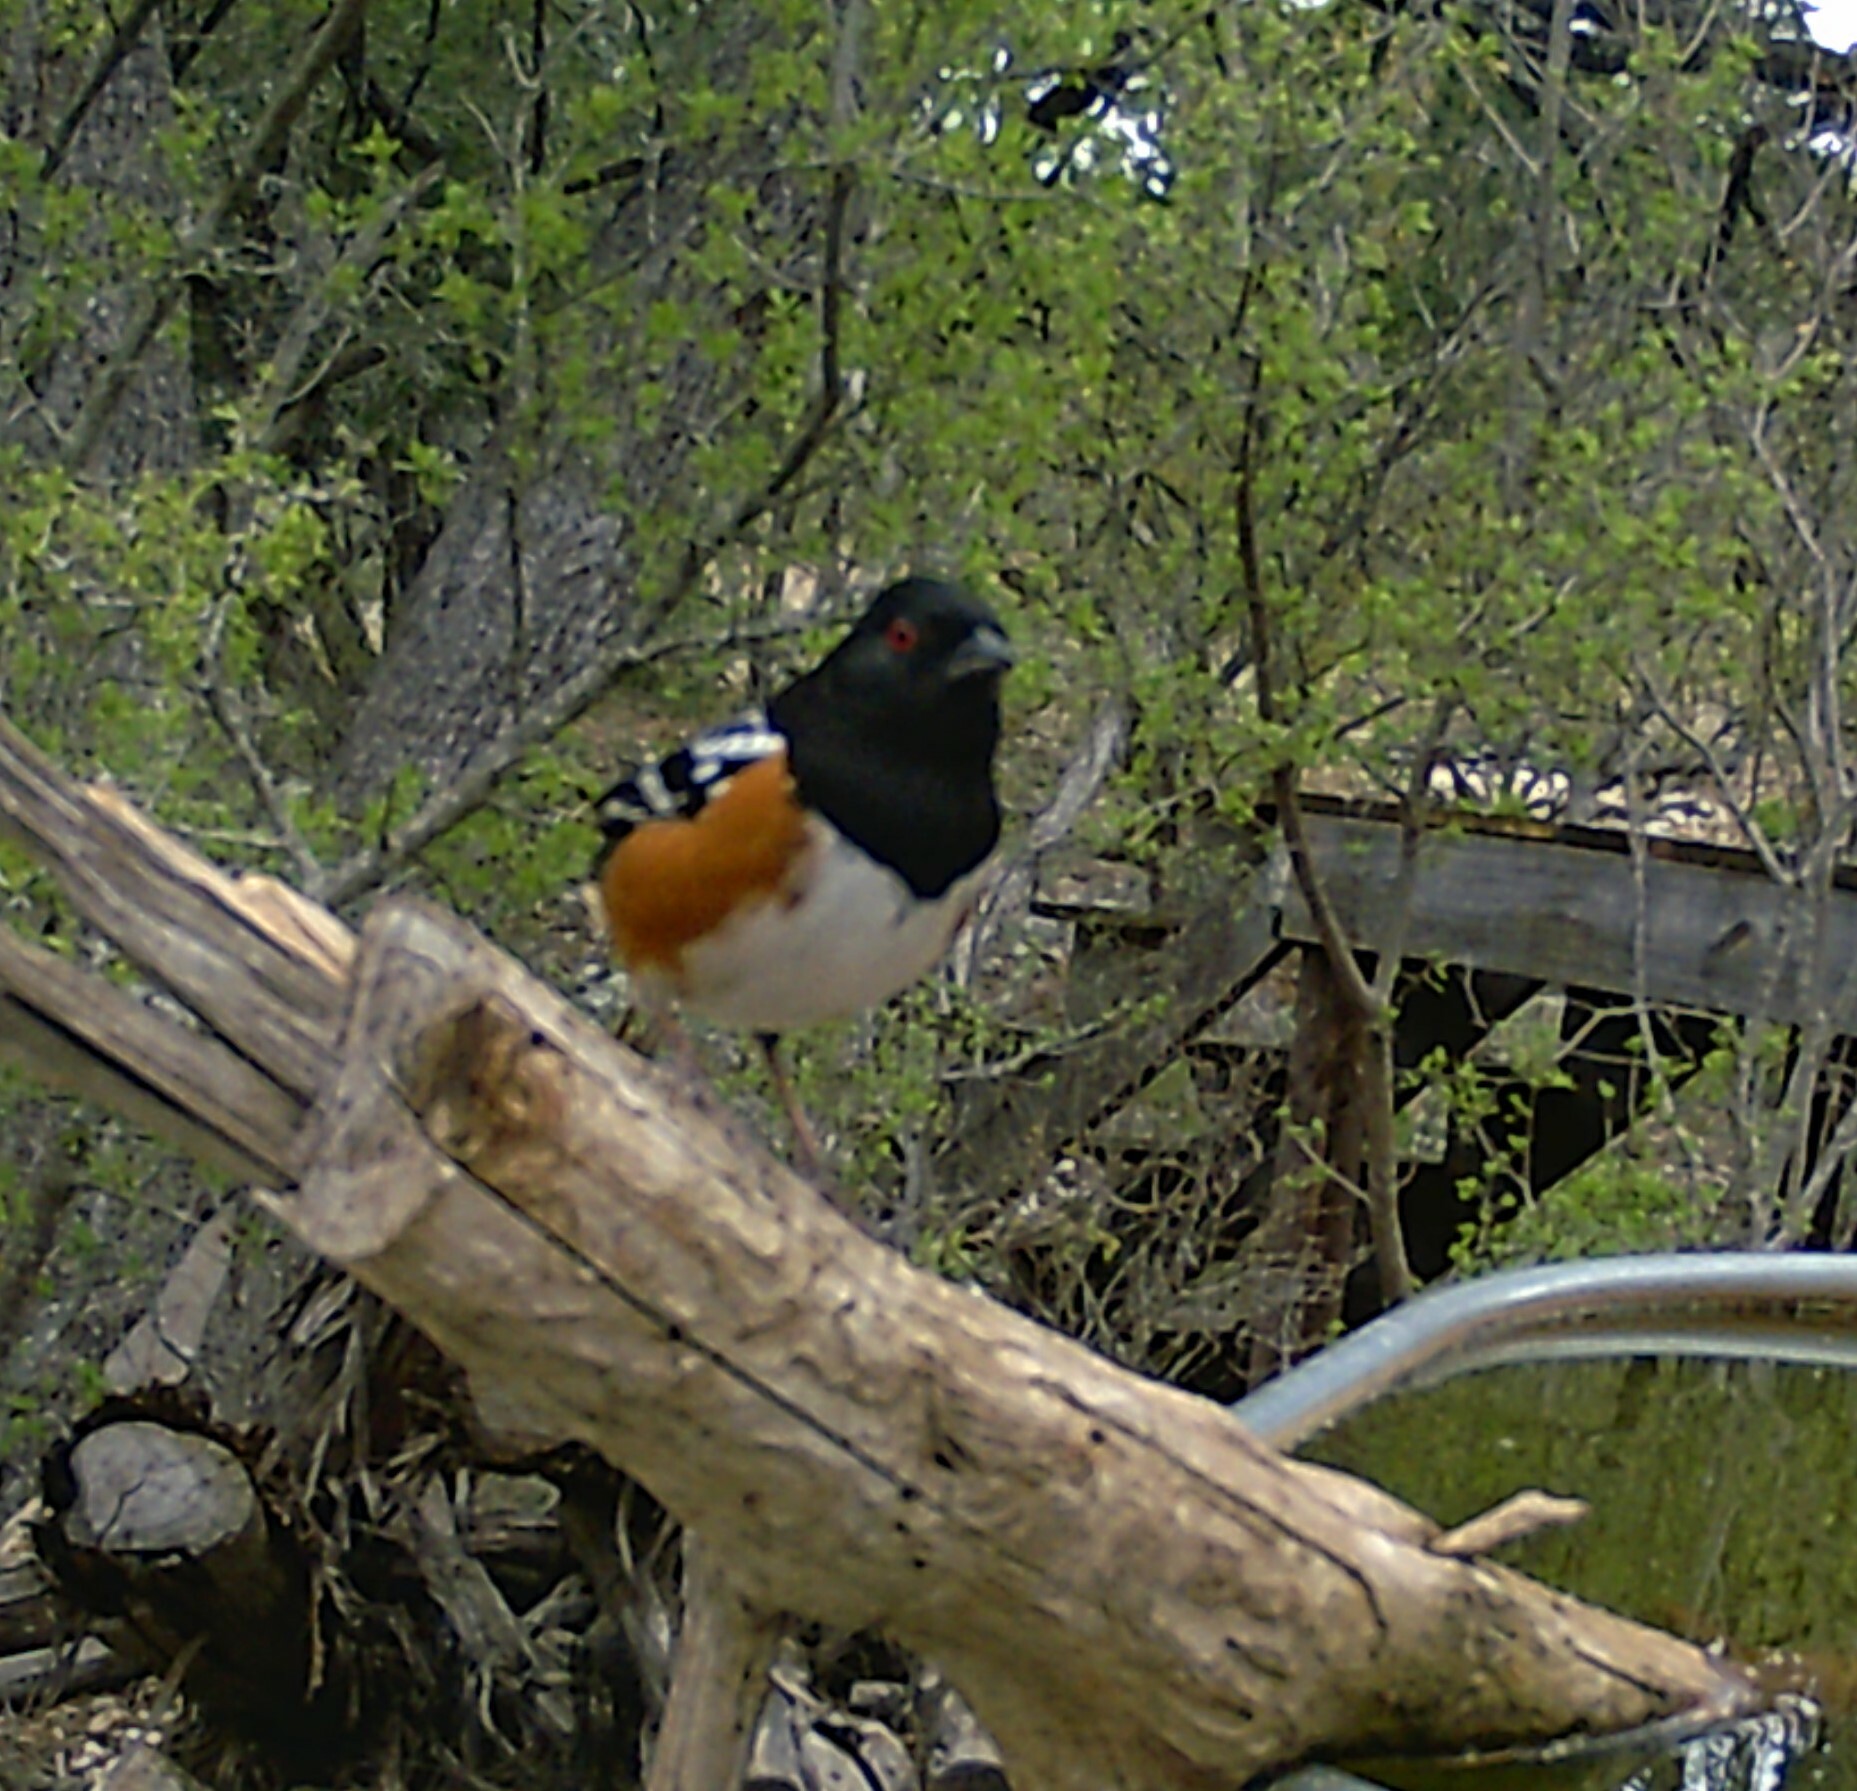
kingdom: Animalia
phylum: Chordata
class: Aves
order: Passeriformes
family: Passerellidae
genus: Pipilo
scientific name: Pipilo maculatus
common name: Spotted towhee
